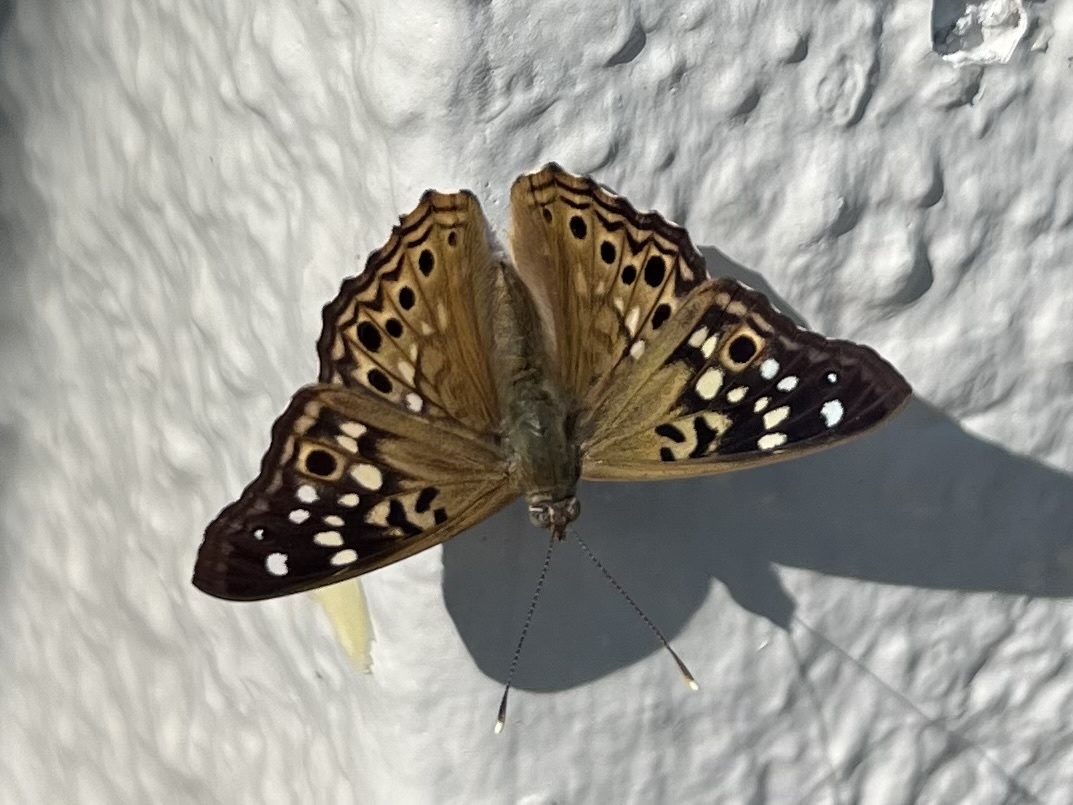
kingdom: Animalia
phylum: Arthropoda
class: Insecta
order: Lepidoptera
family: Nymphalidae
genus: Asterocampa
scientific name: Asterocampa celtis
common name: Hackberry emperor
